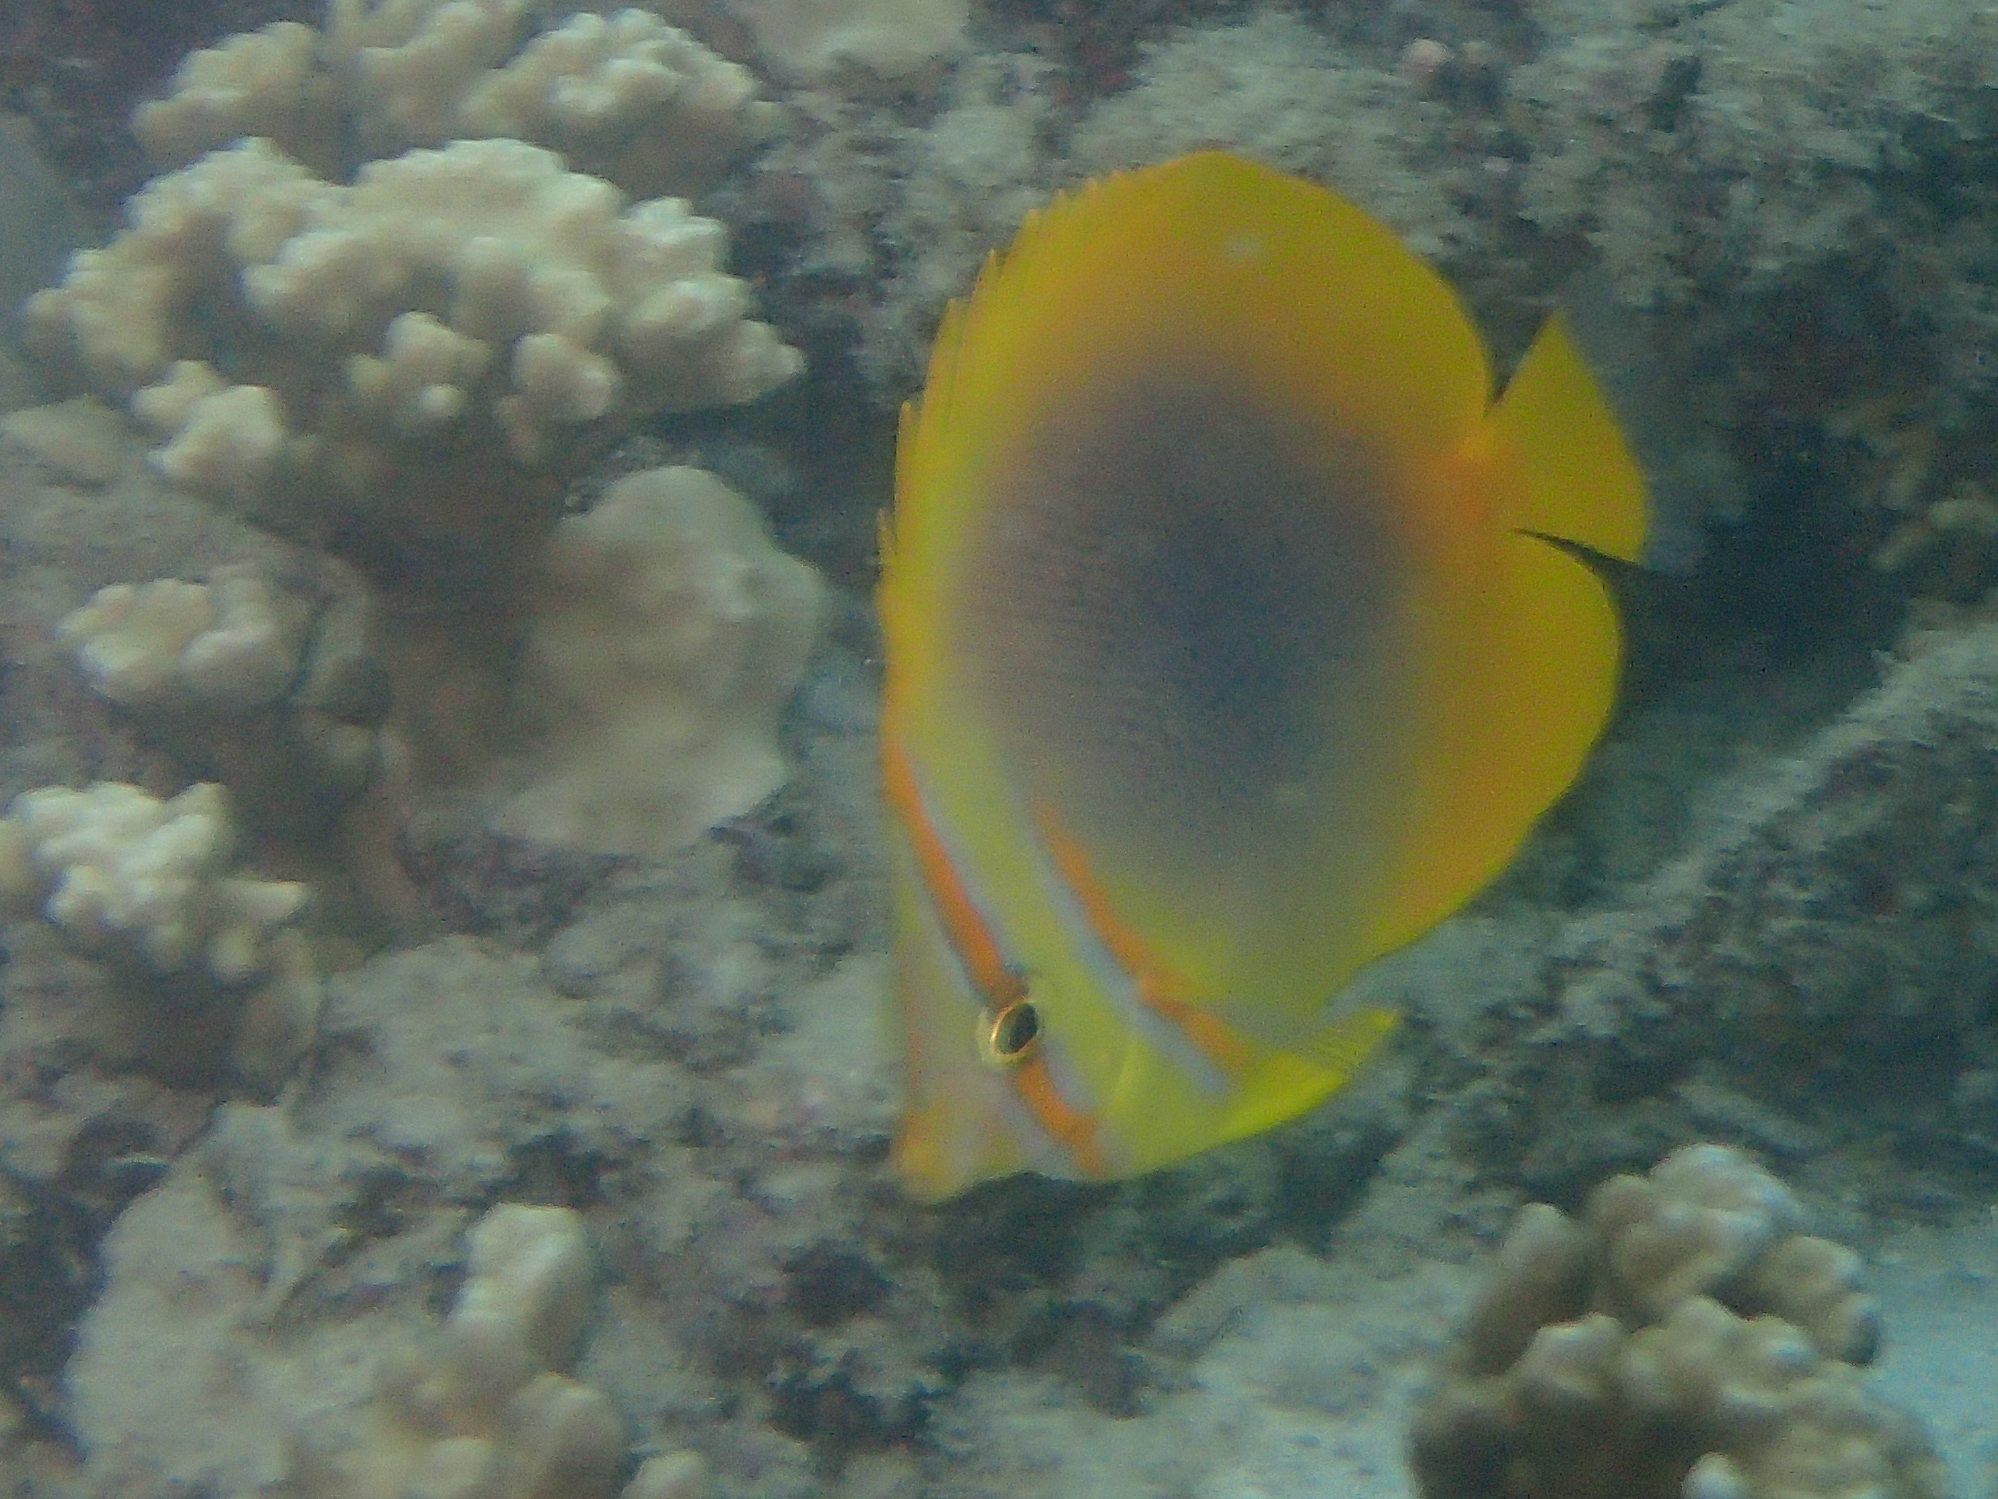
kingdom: Animalia
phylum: Chordata
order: Perciformes
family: Chaetodontidae
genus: Chaetodon
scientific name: Chaetodon aureofasciatus
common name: Golden butterflyfish
